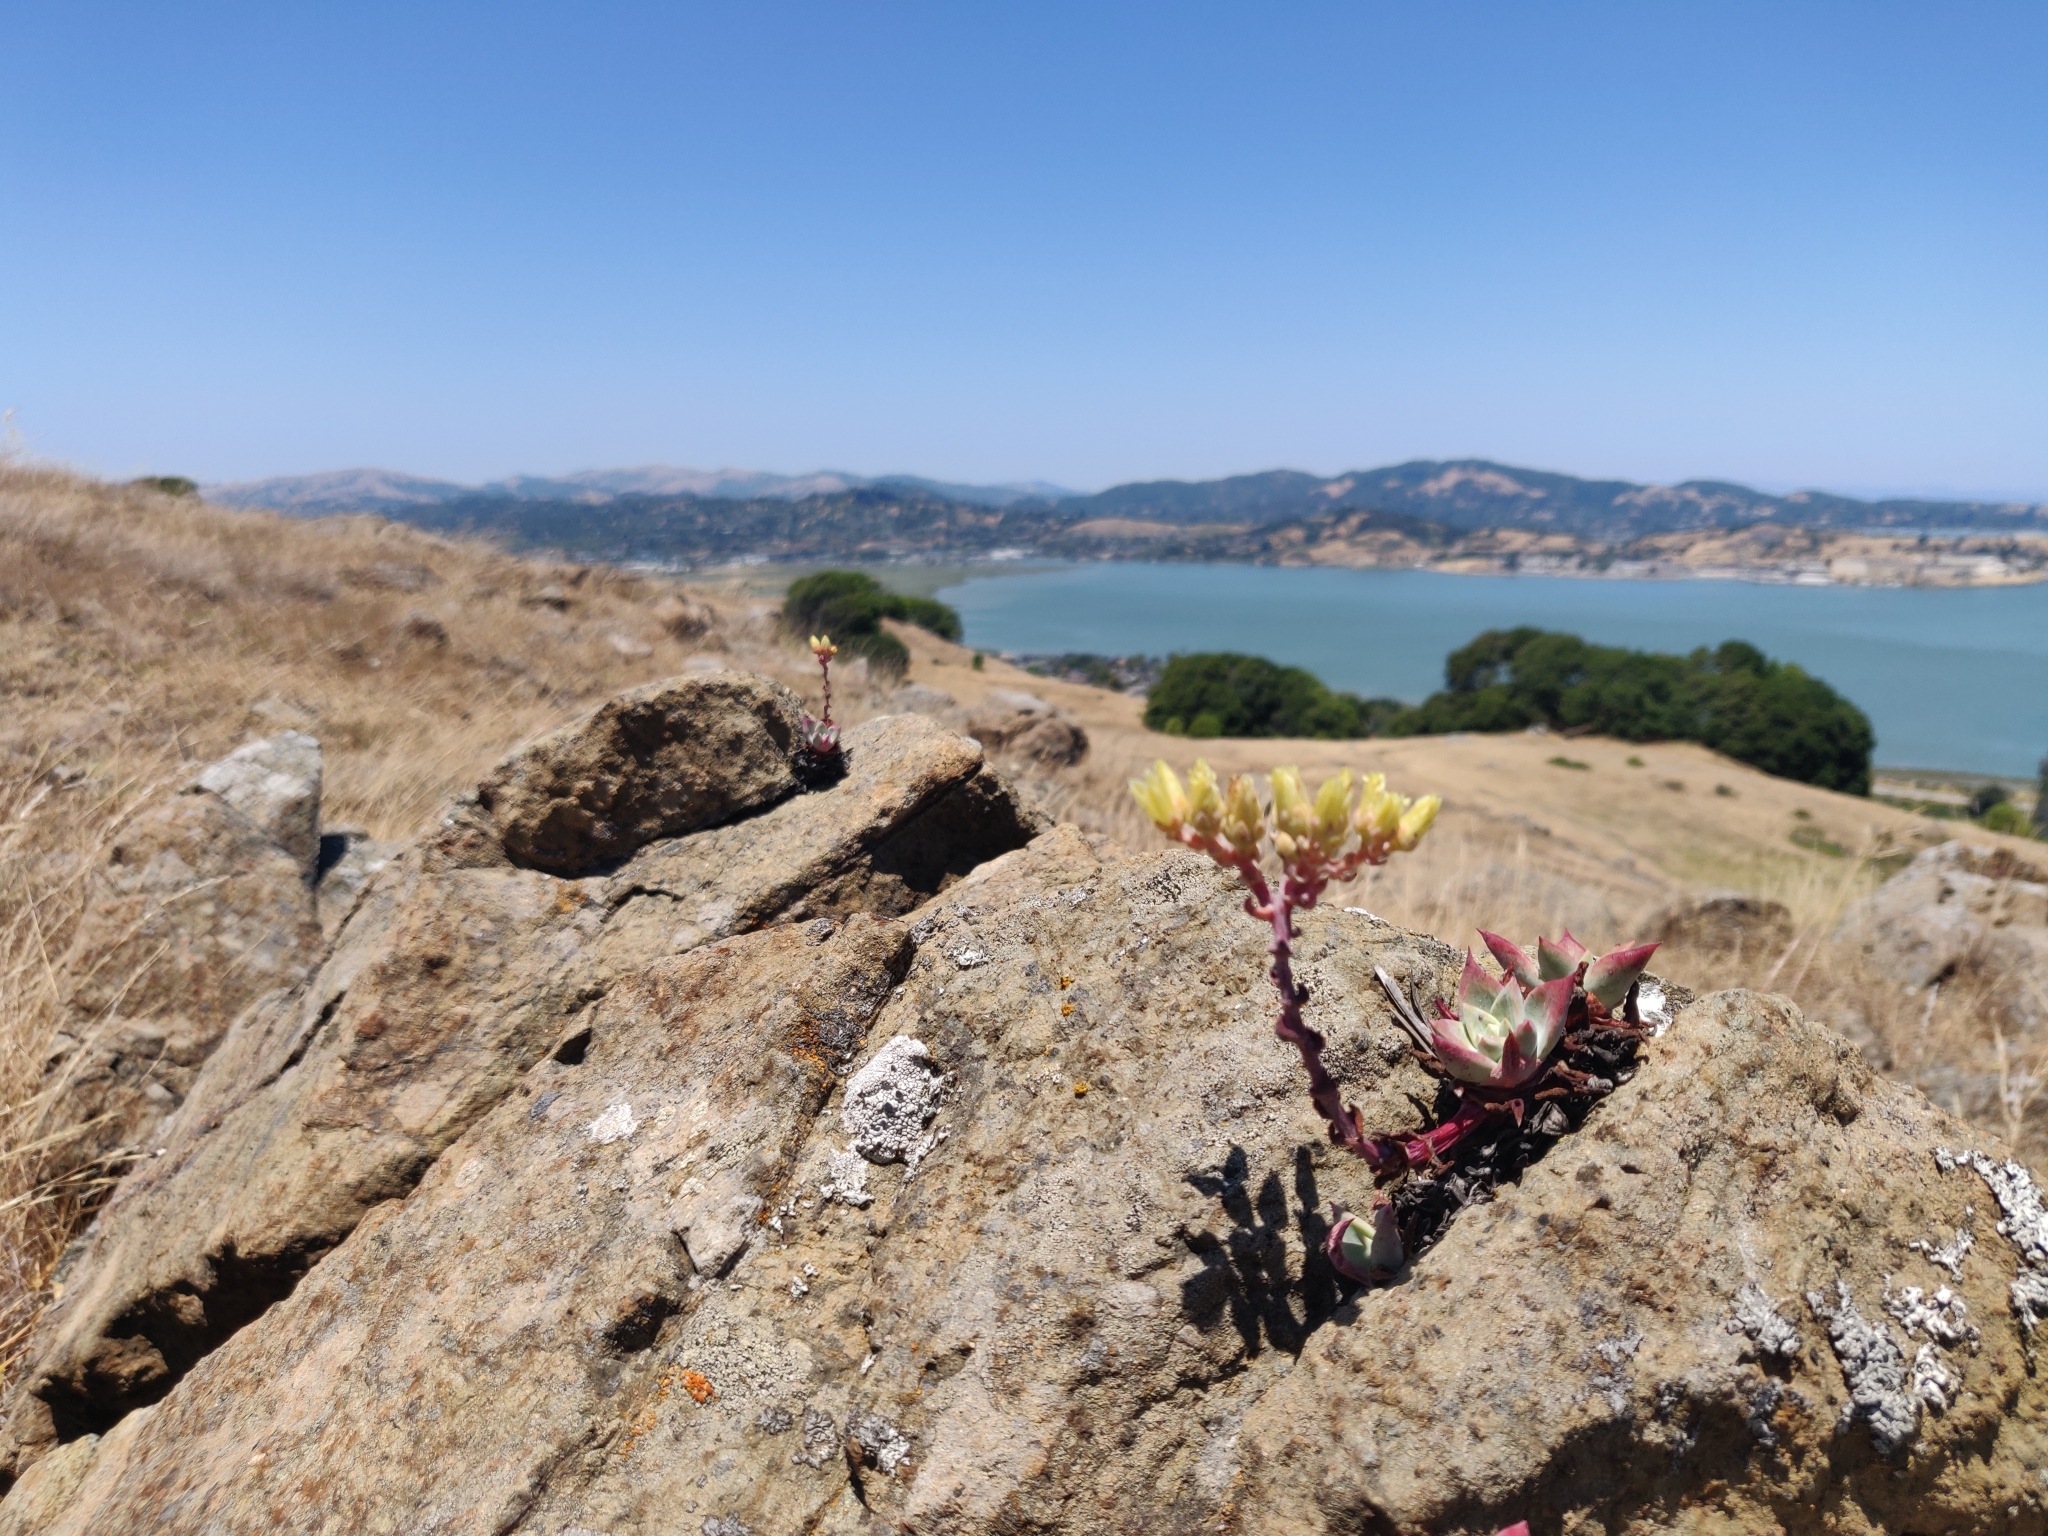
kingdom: Plantae
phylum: Tracheophyta
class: Magnoliopsida
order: Saxifragales
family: Crassulaceae
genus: Dudleya
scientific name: Dudleya farinosa
